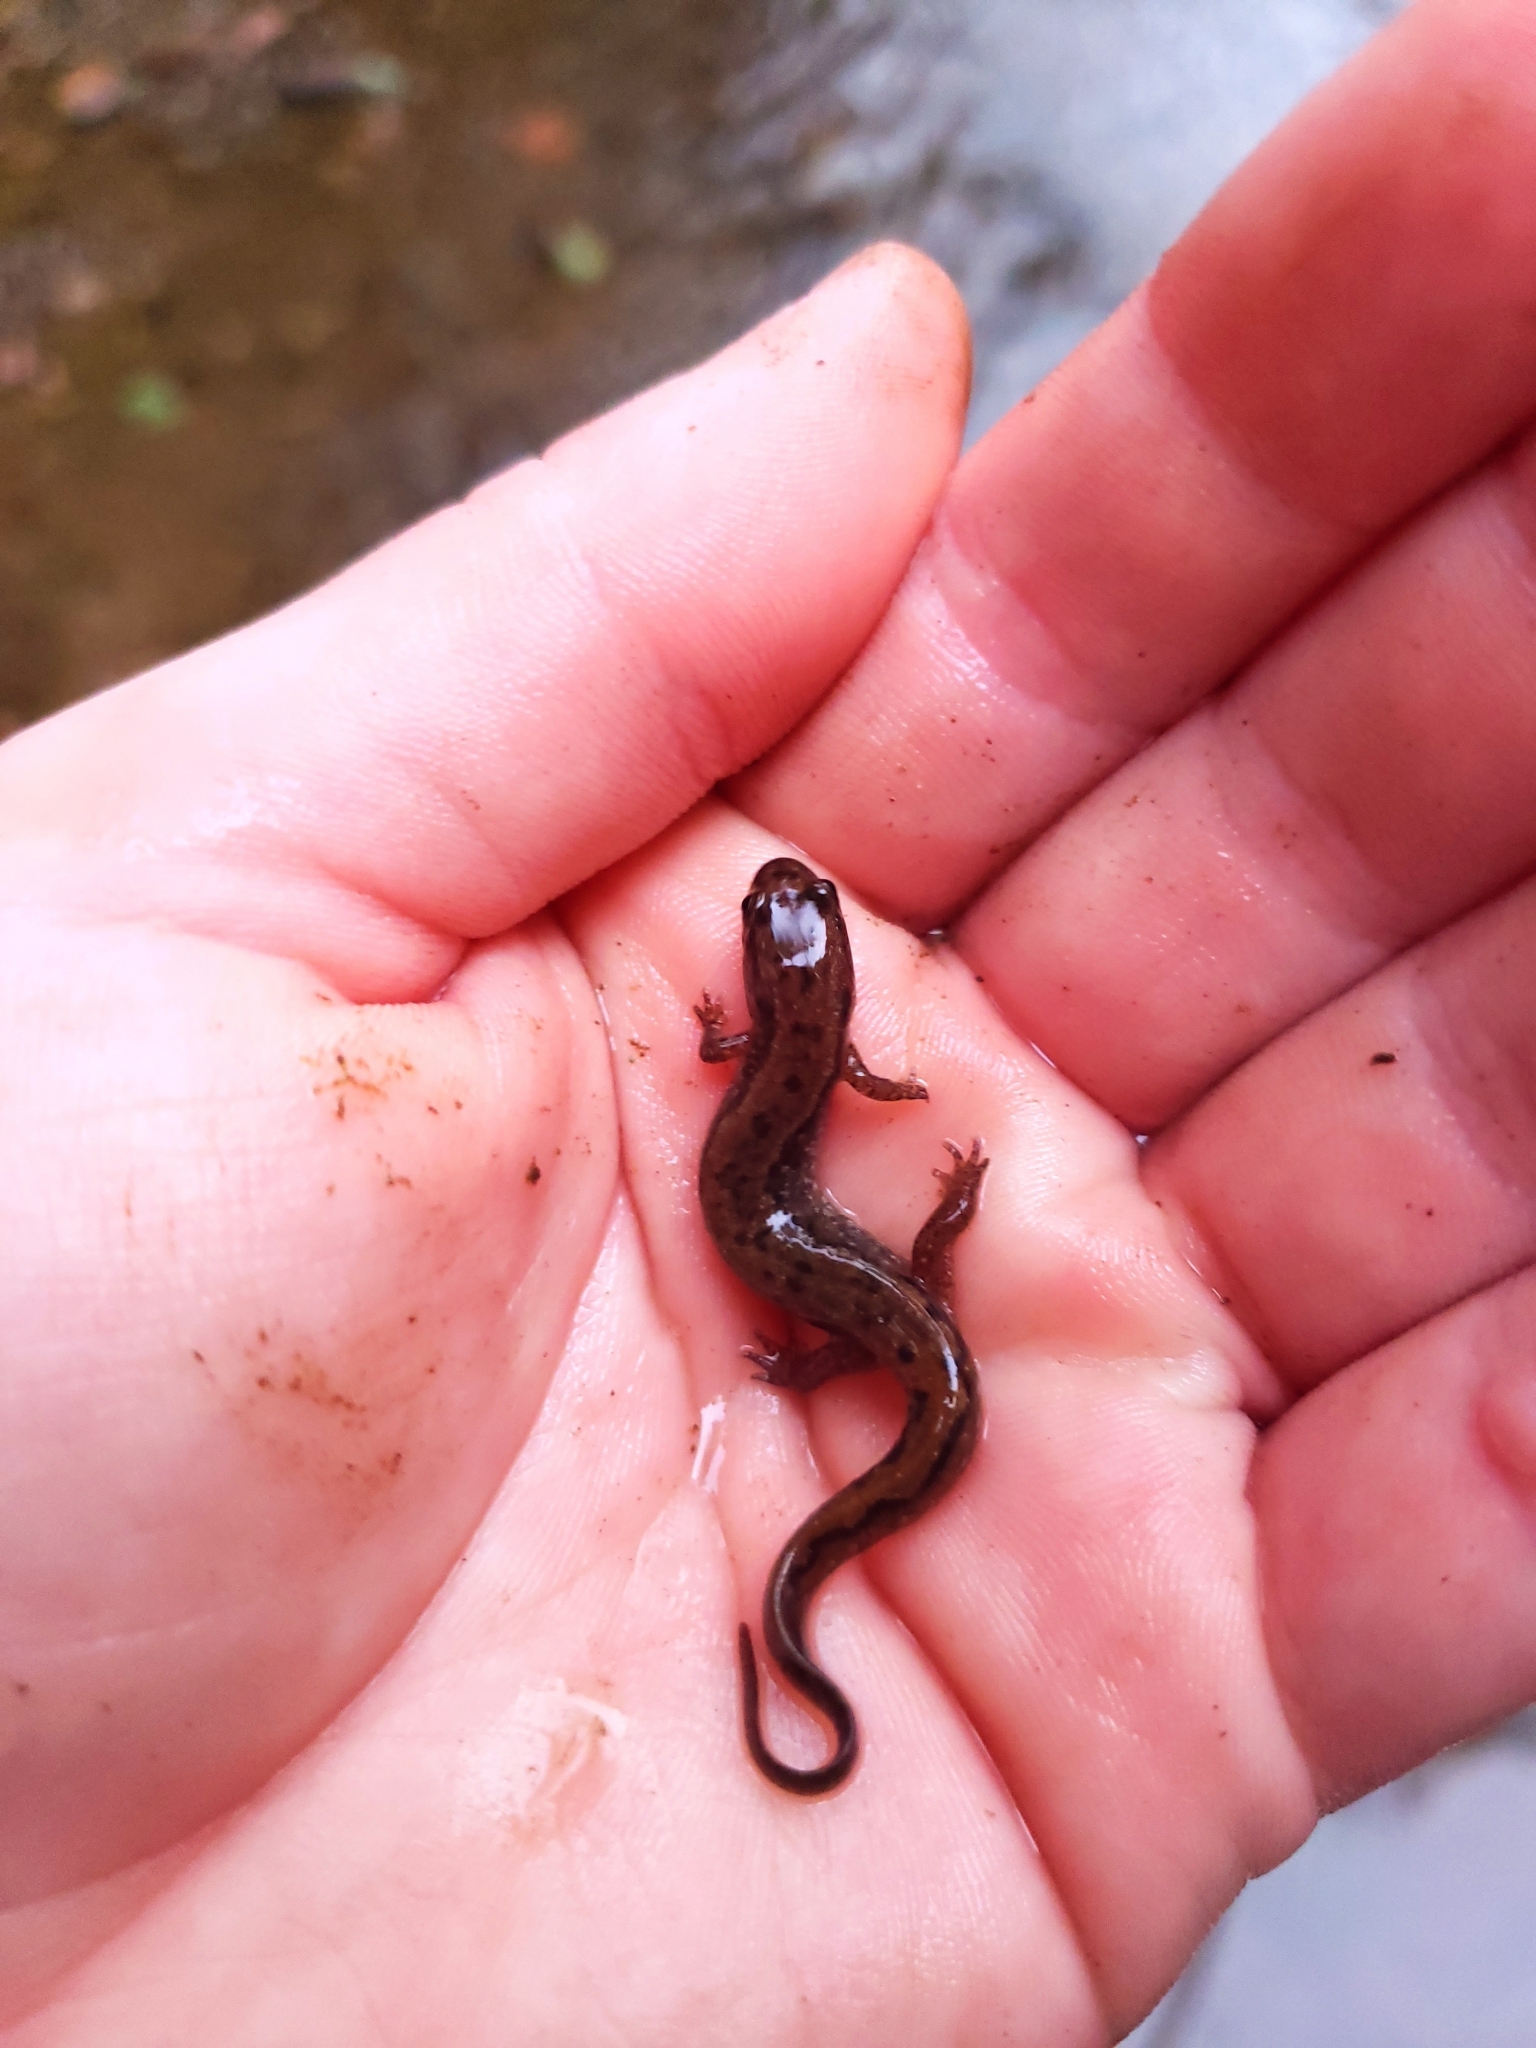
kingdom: Animalia
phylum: Chordata
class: Amphibia
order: Caudata
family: Plethodontidae
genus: Desmognathus
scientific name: Desmognathus fuscus
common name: Northern dusky salamander
